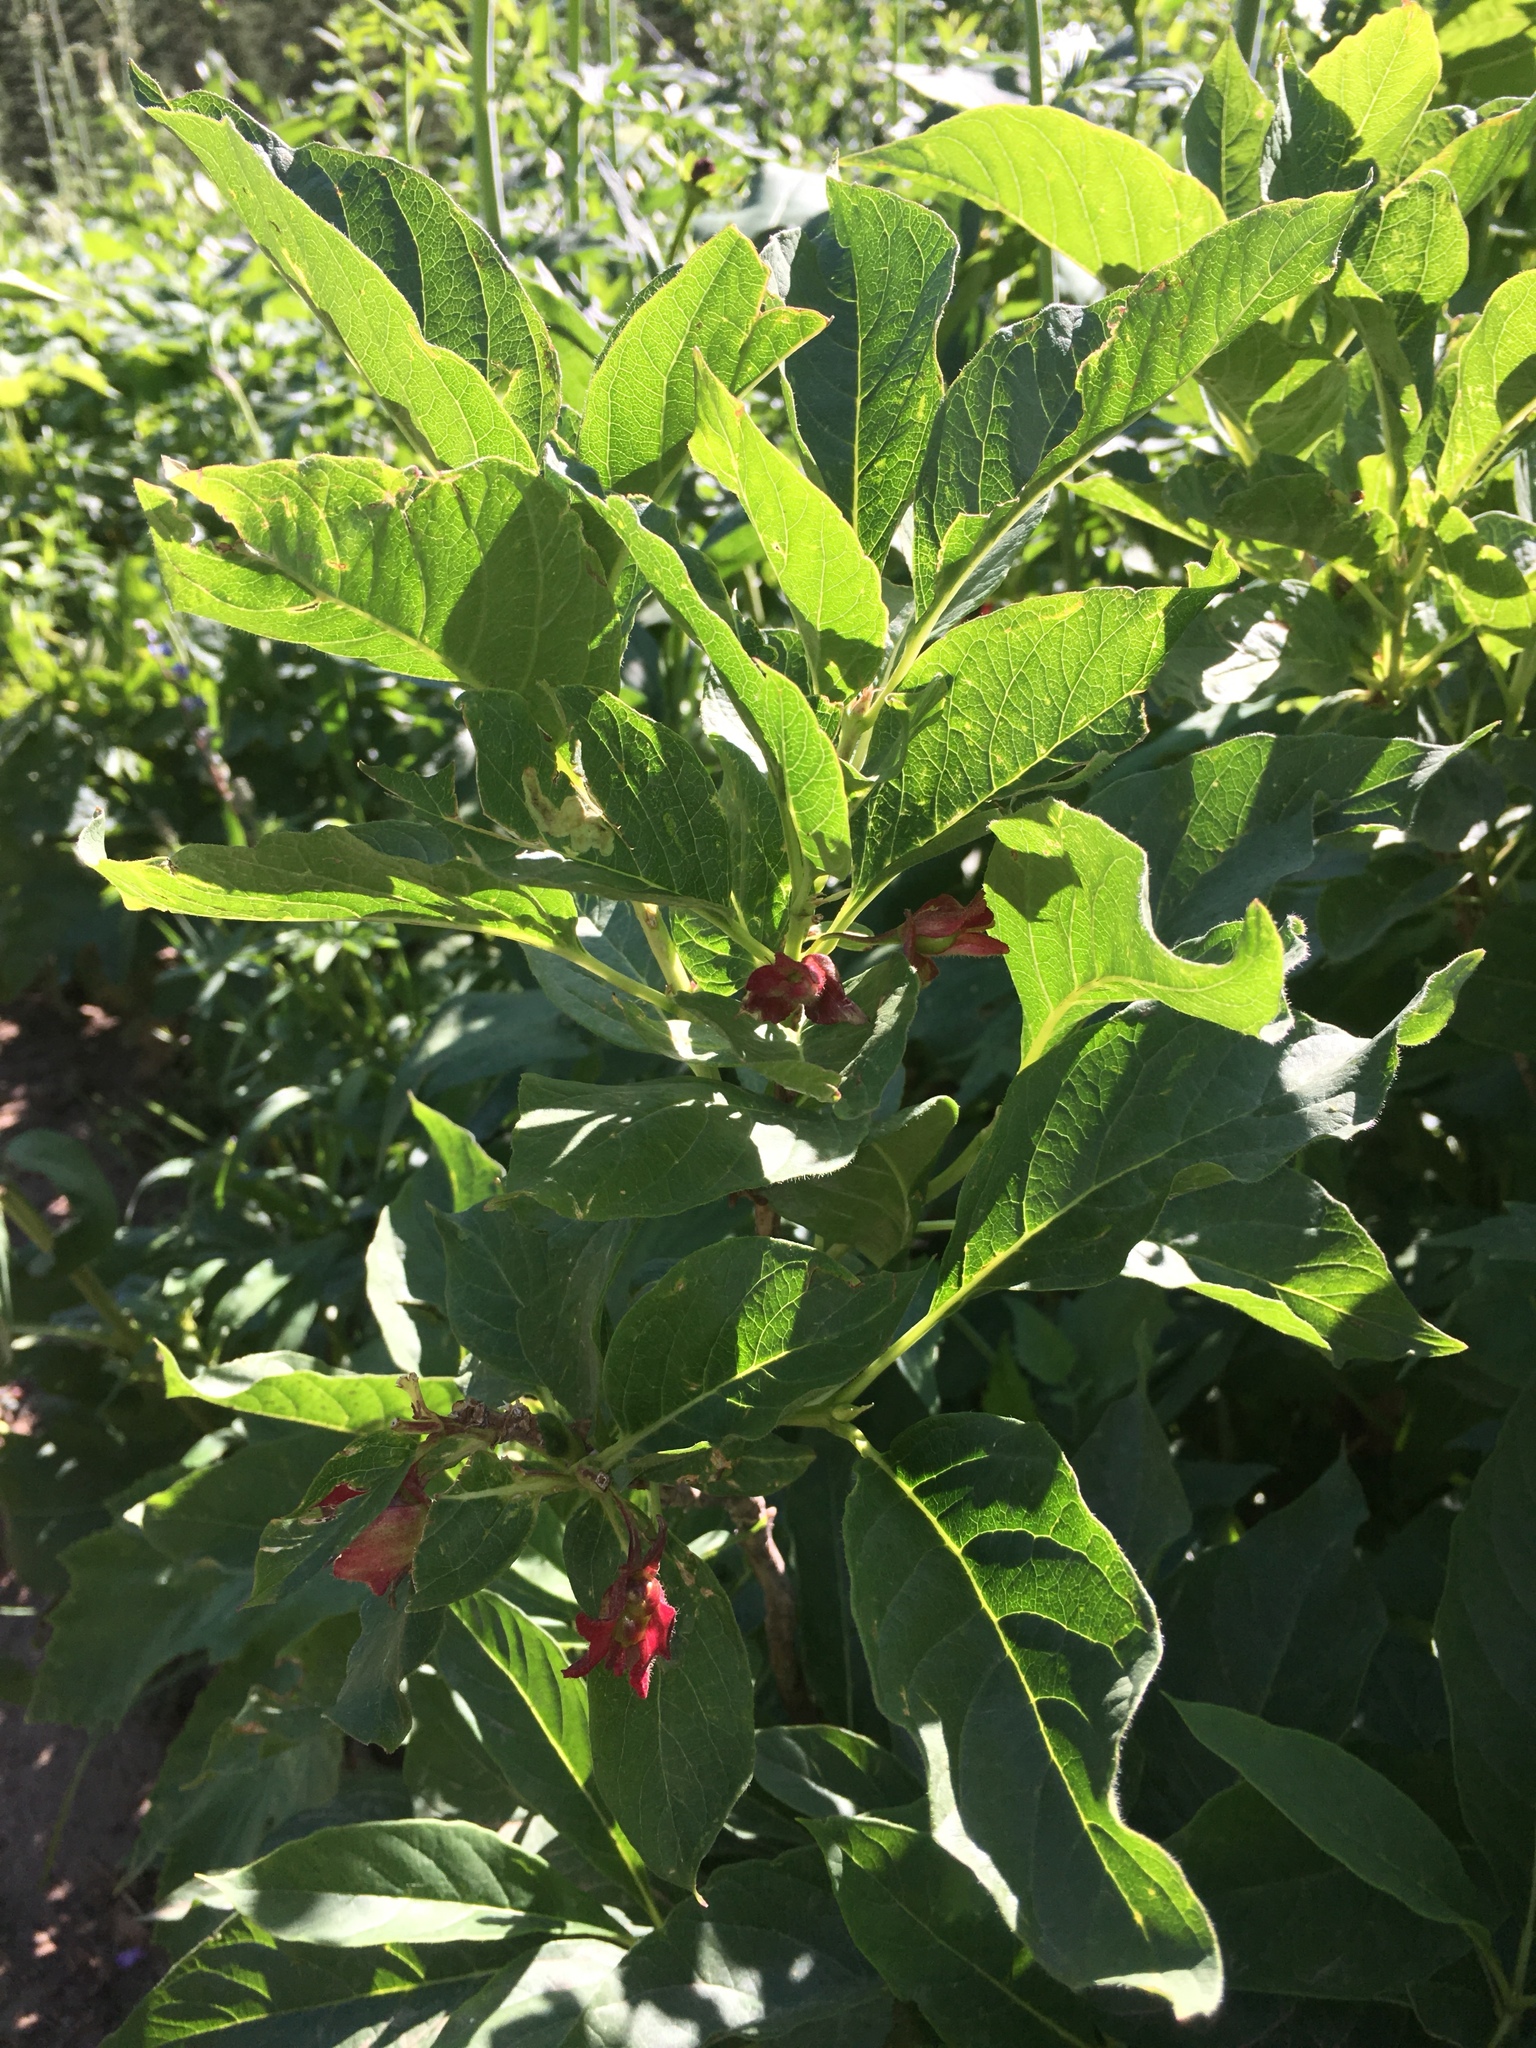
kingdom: Plantae
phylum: Tracheophyta
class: Magnoliopsida
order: Dipsacales
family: Caprifoliaceae
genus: Lonicera
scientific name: Lonicera involucrata
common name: Californian honeysuckle
